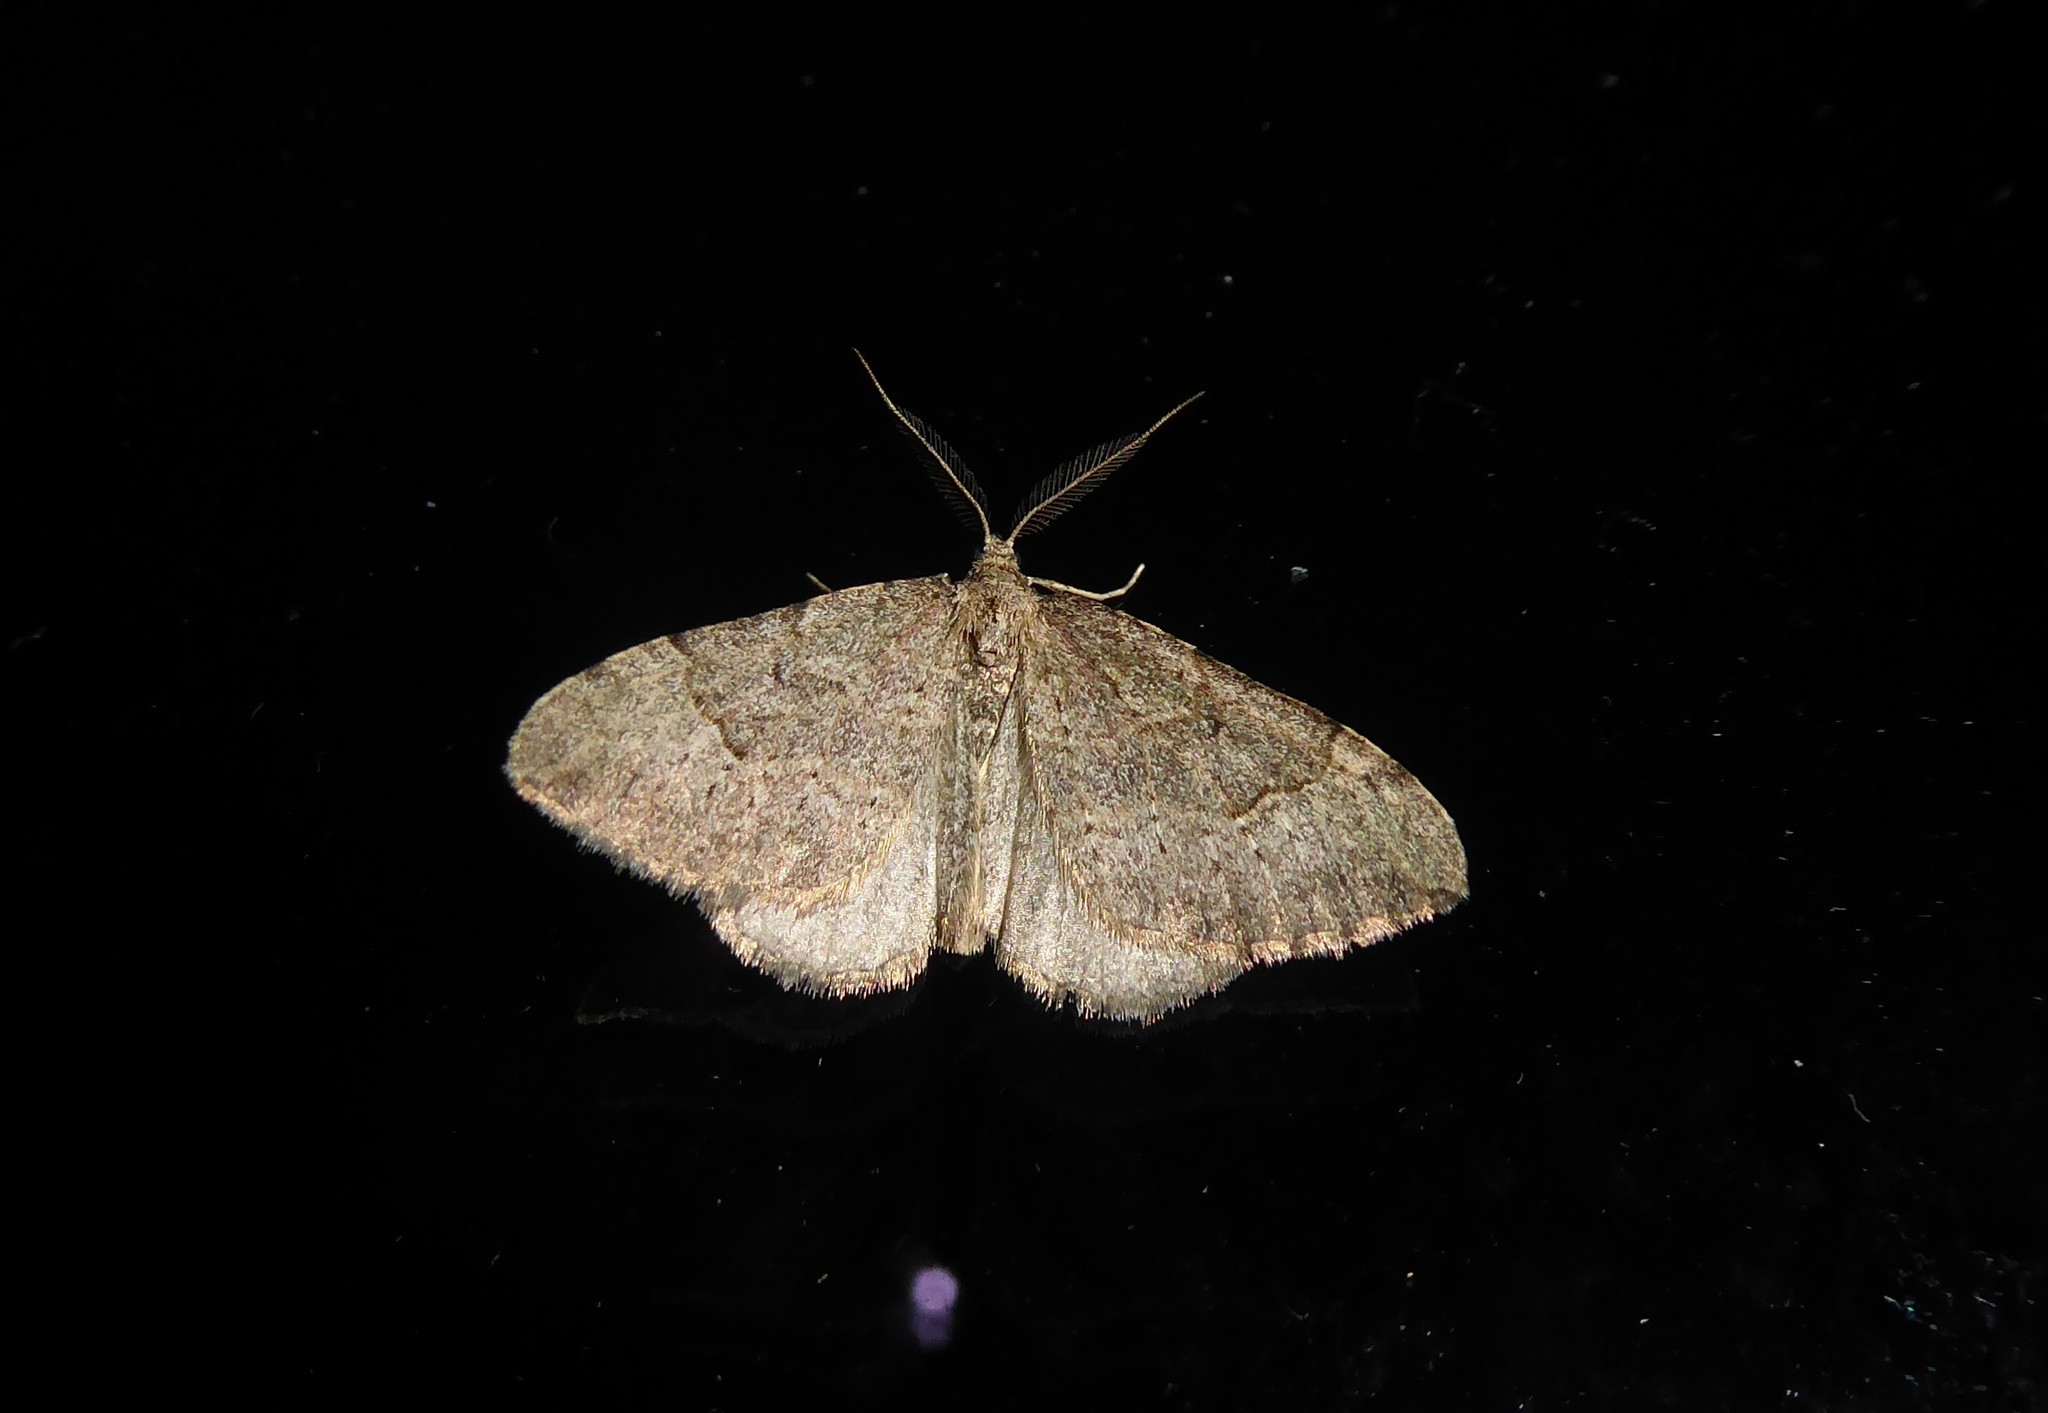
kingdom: Animalia
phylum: Arthropoda
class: Insecta
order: Lepidoptera
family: Geometridae
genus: Epyaxa
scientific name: Epyaxa rosearia
